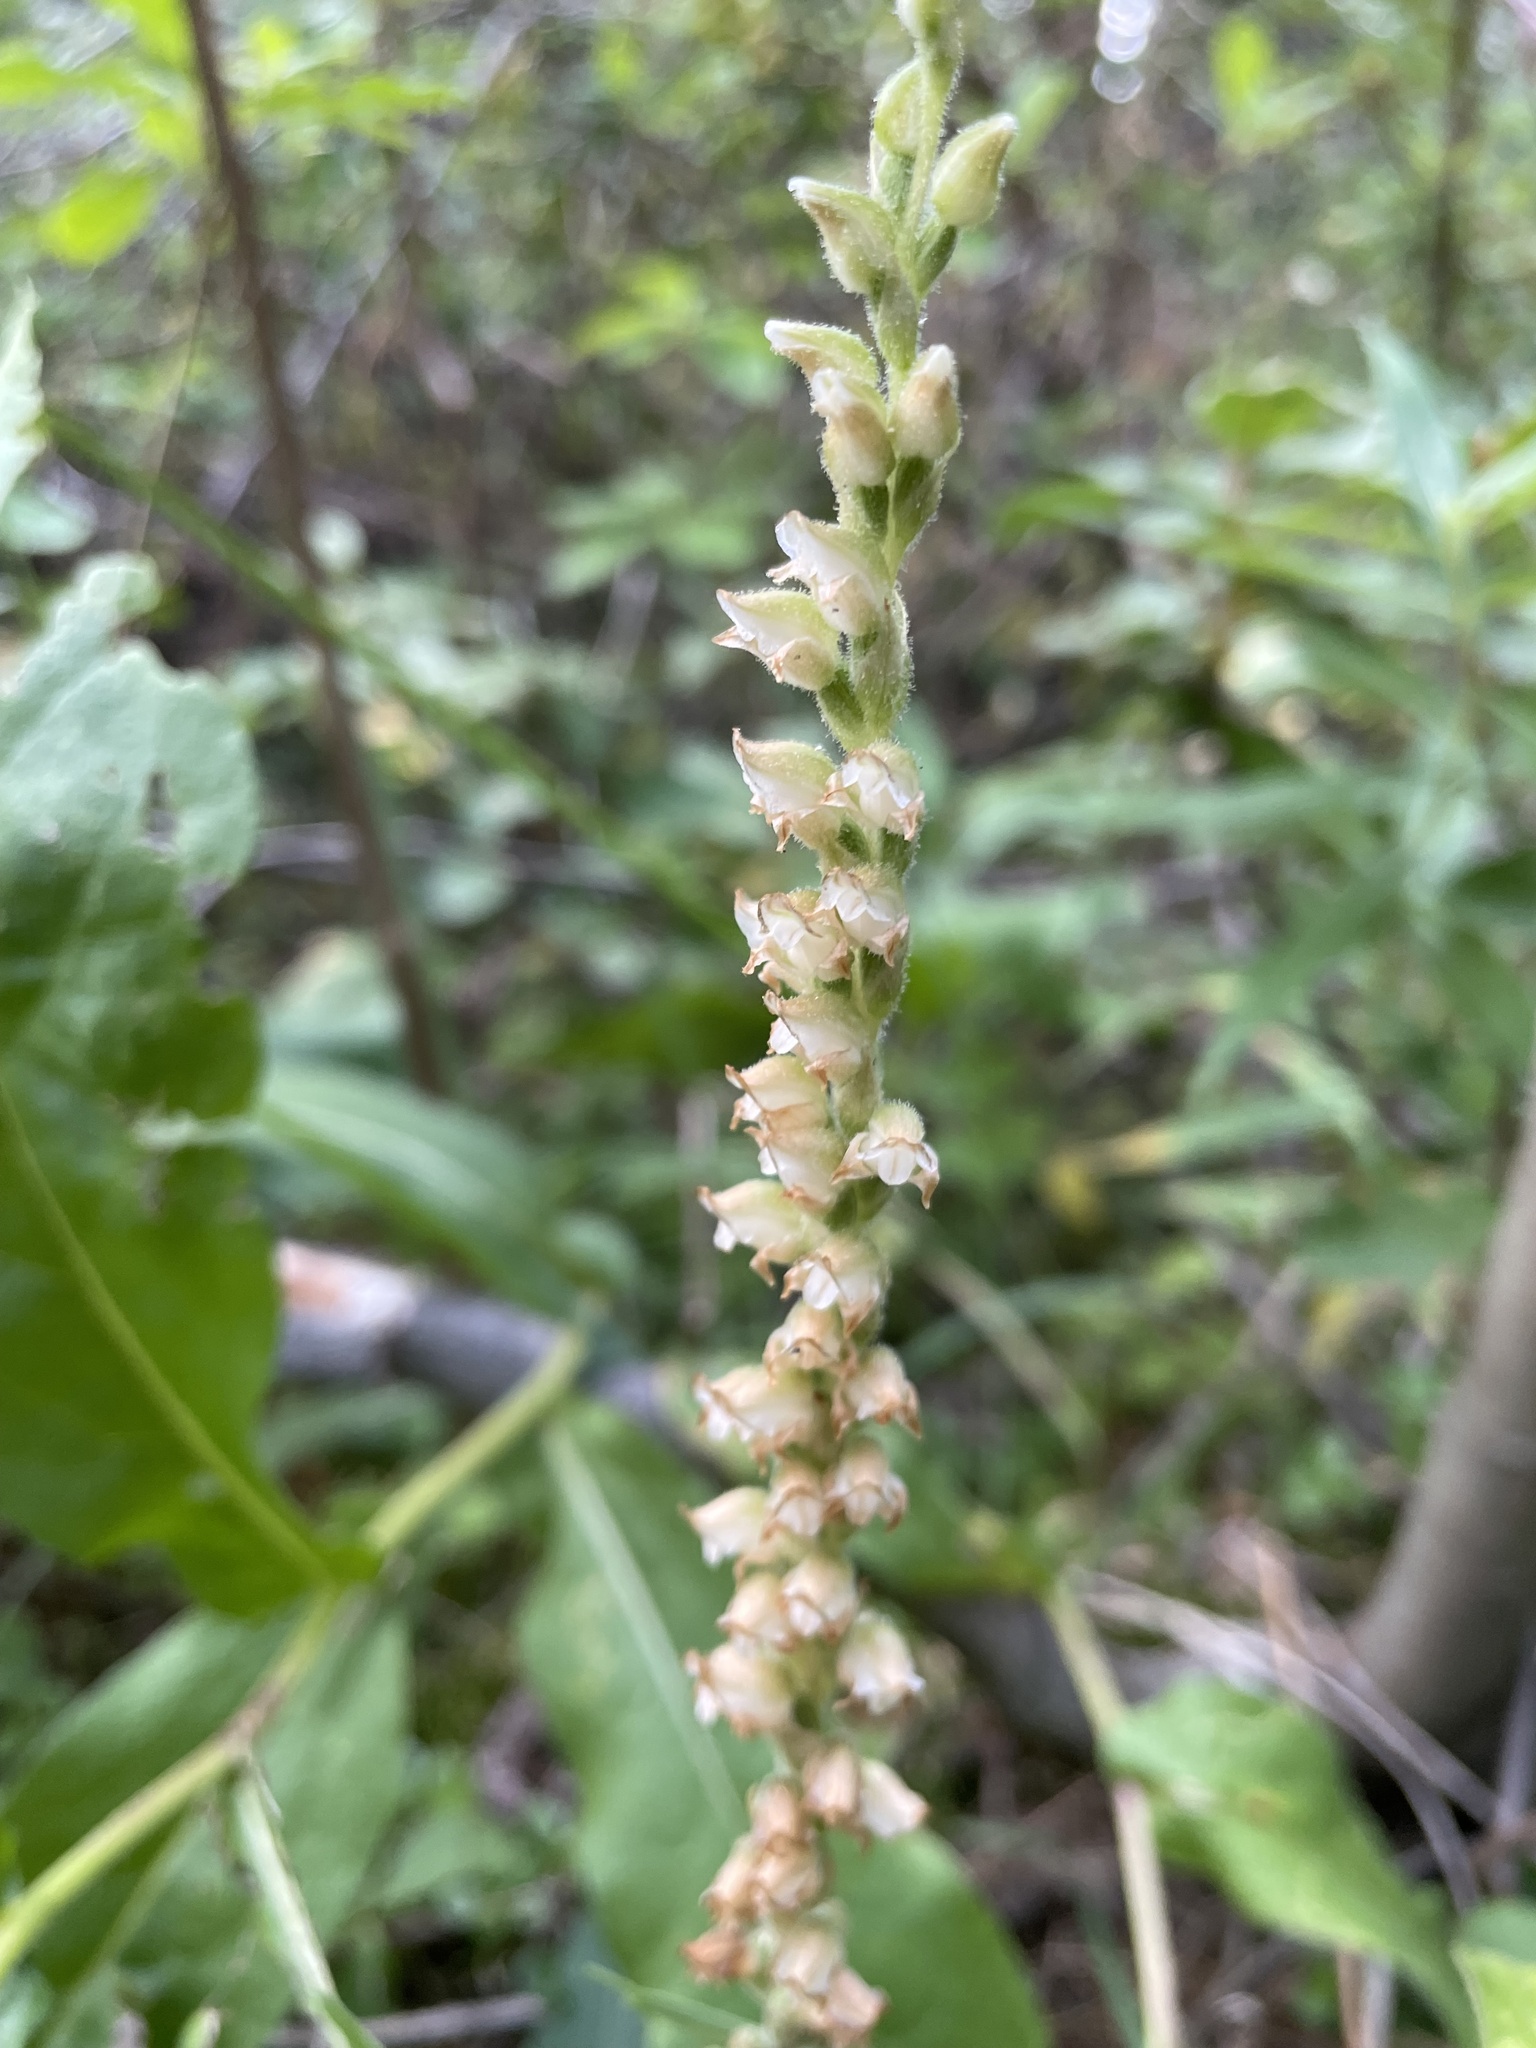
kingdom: Plantae
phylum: Tracheophyta
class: Liliopsida
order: Asparagales
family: Orchidaceae
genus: Goodyera
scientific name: Goodyera oblongifolia
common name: Giant rattlesnake-plantain
